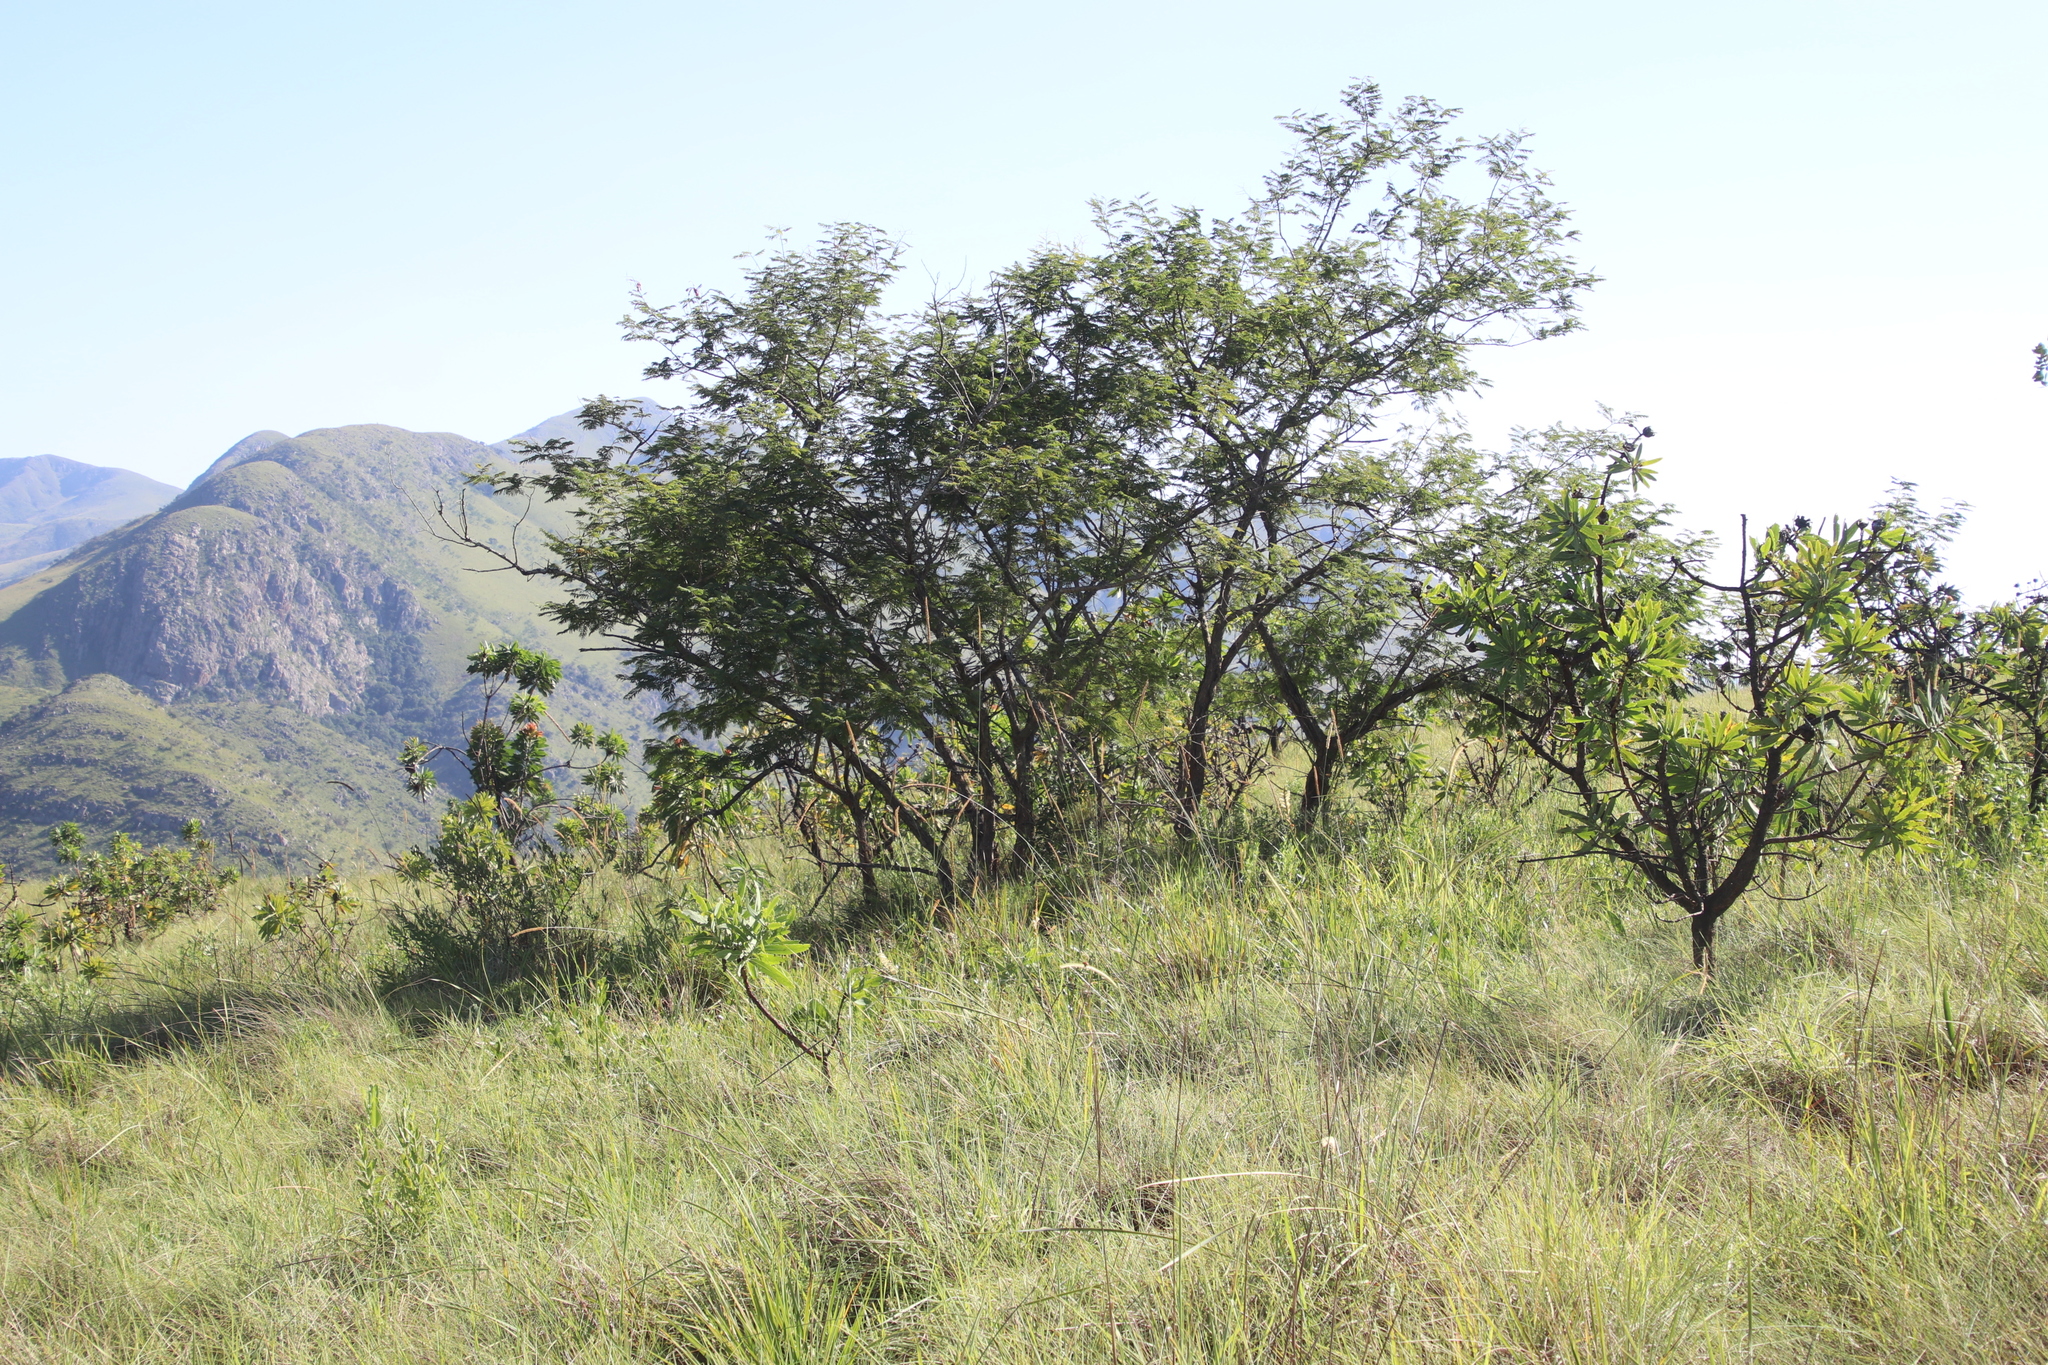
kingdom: Plantae
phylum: Tracheophyta
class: Magnoliopsida
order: Fabales
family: Fabaceae
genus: Senegalia
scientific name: Senegalia ataxacantha
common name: Flame acacia
